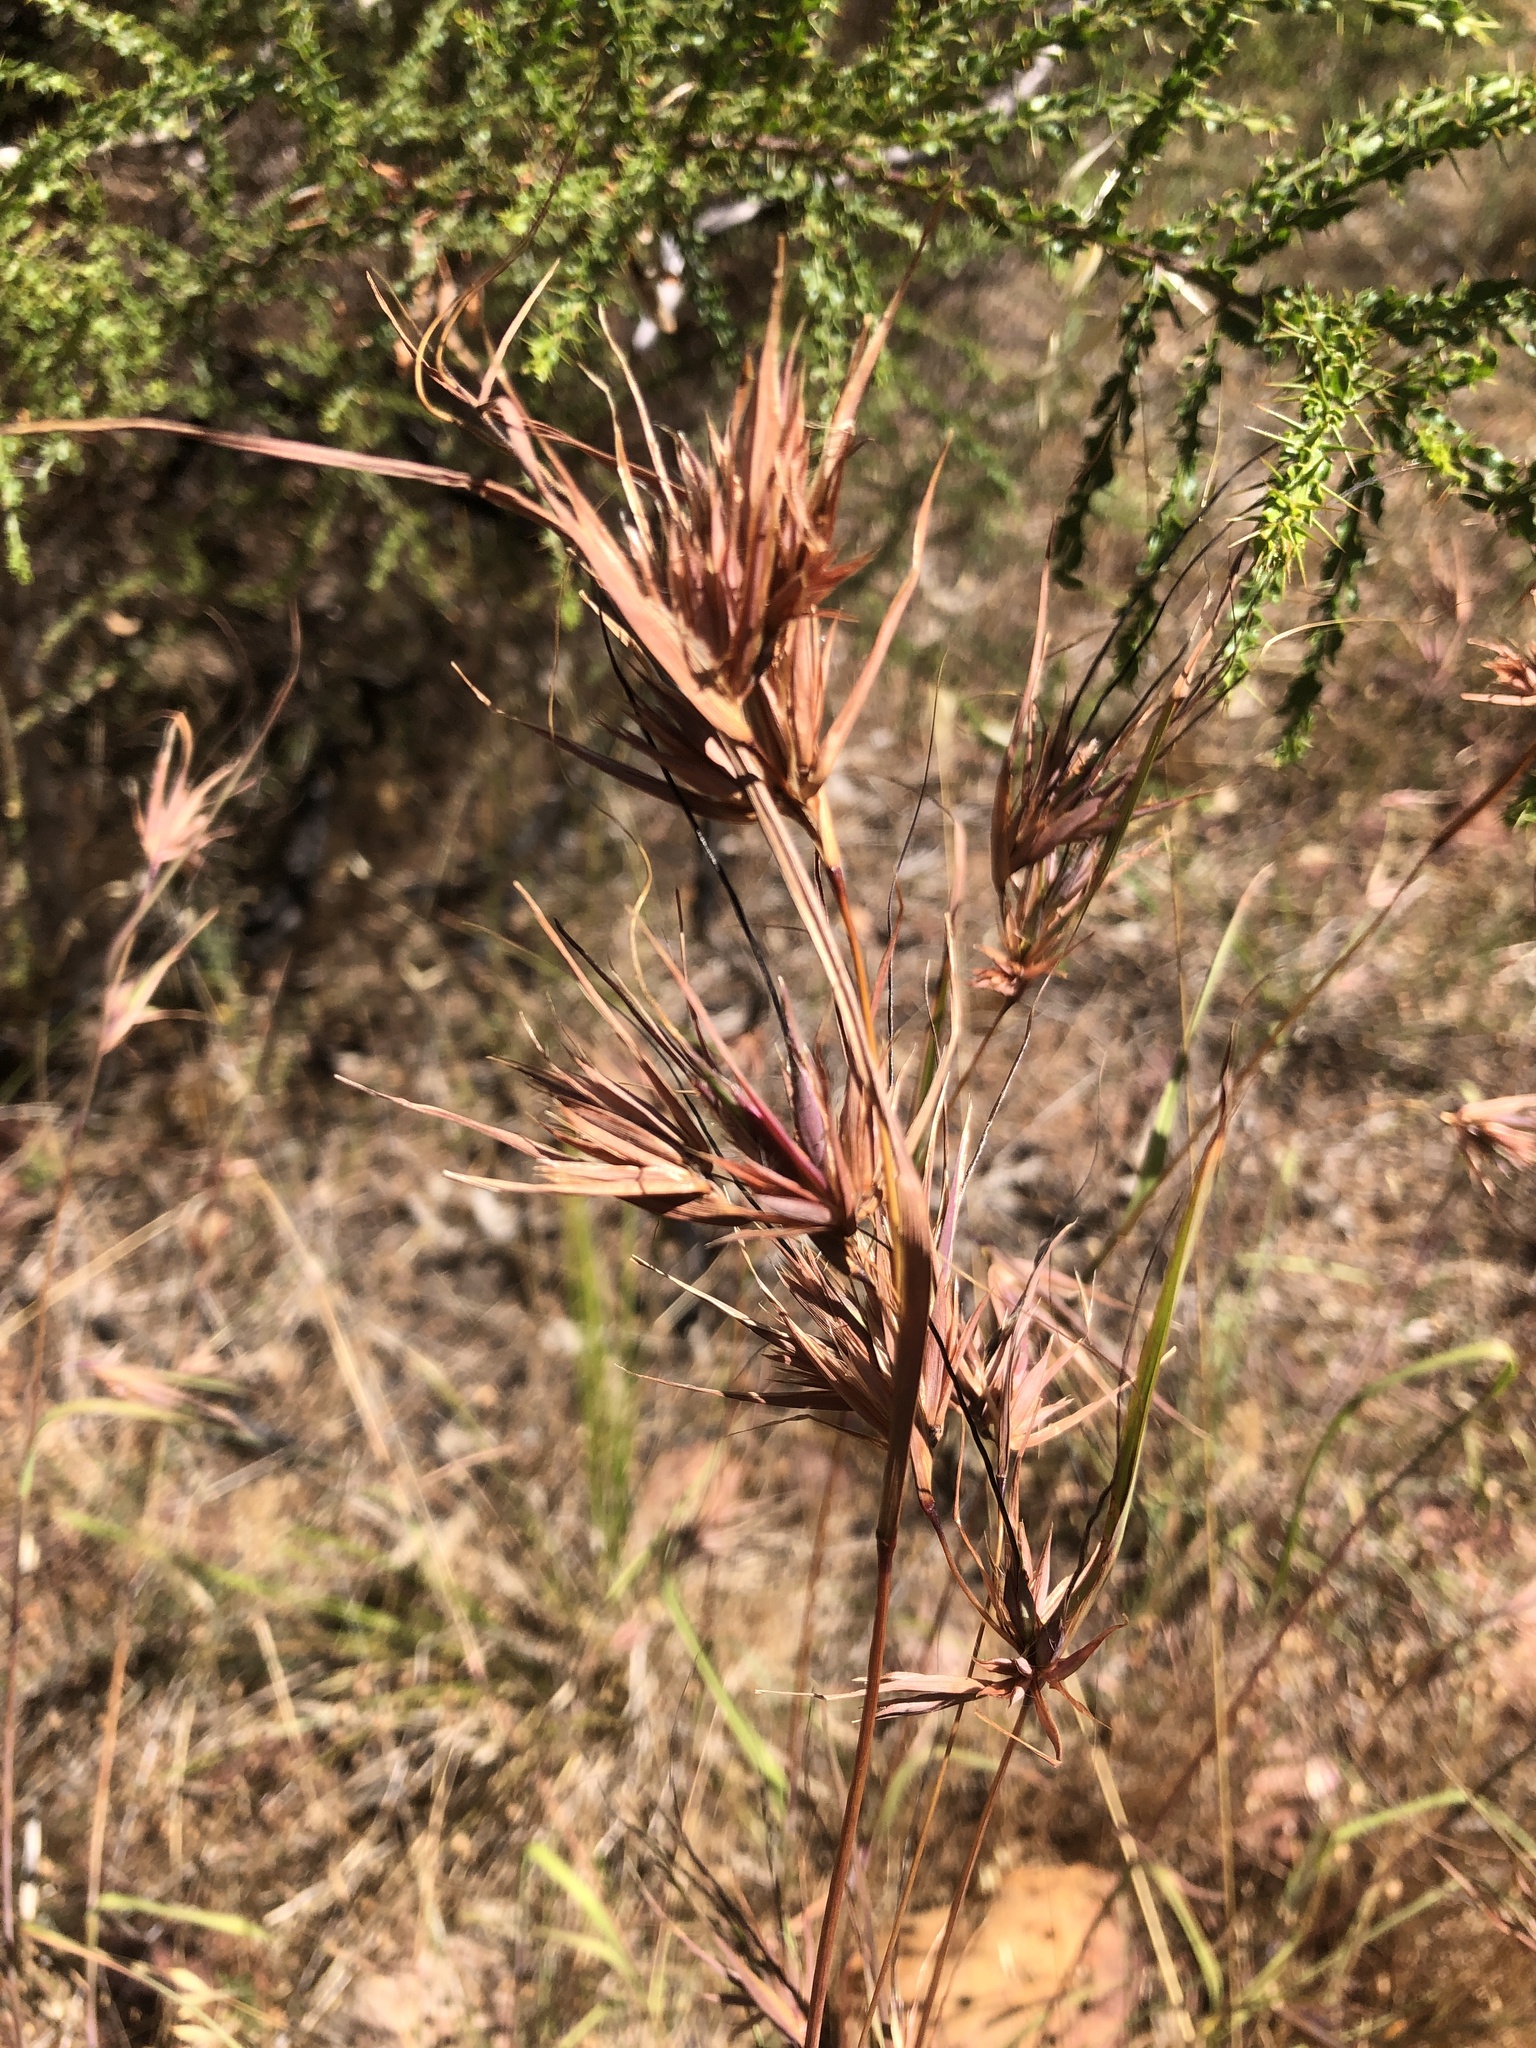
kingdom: Plantae
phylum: Tracheophyta
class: Liliopsida
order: Poales
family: Poaceae
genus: Themeda
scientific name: Themeda triandra
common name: Kangaroo grass
